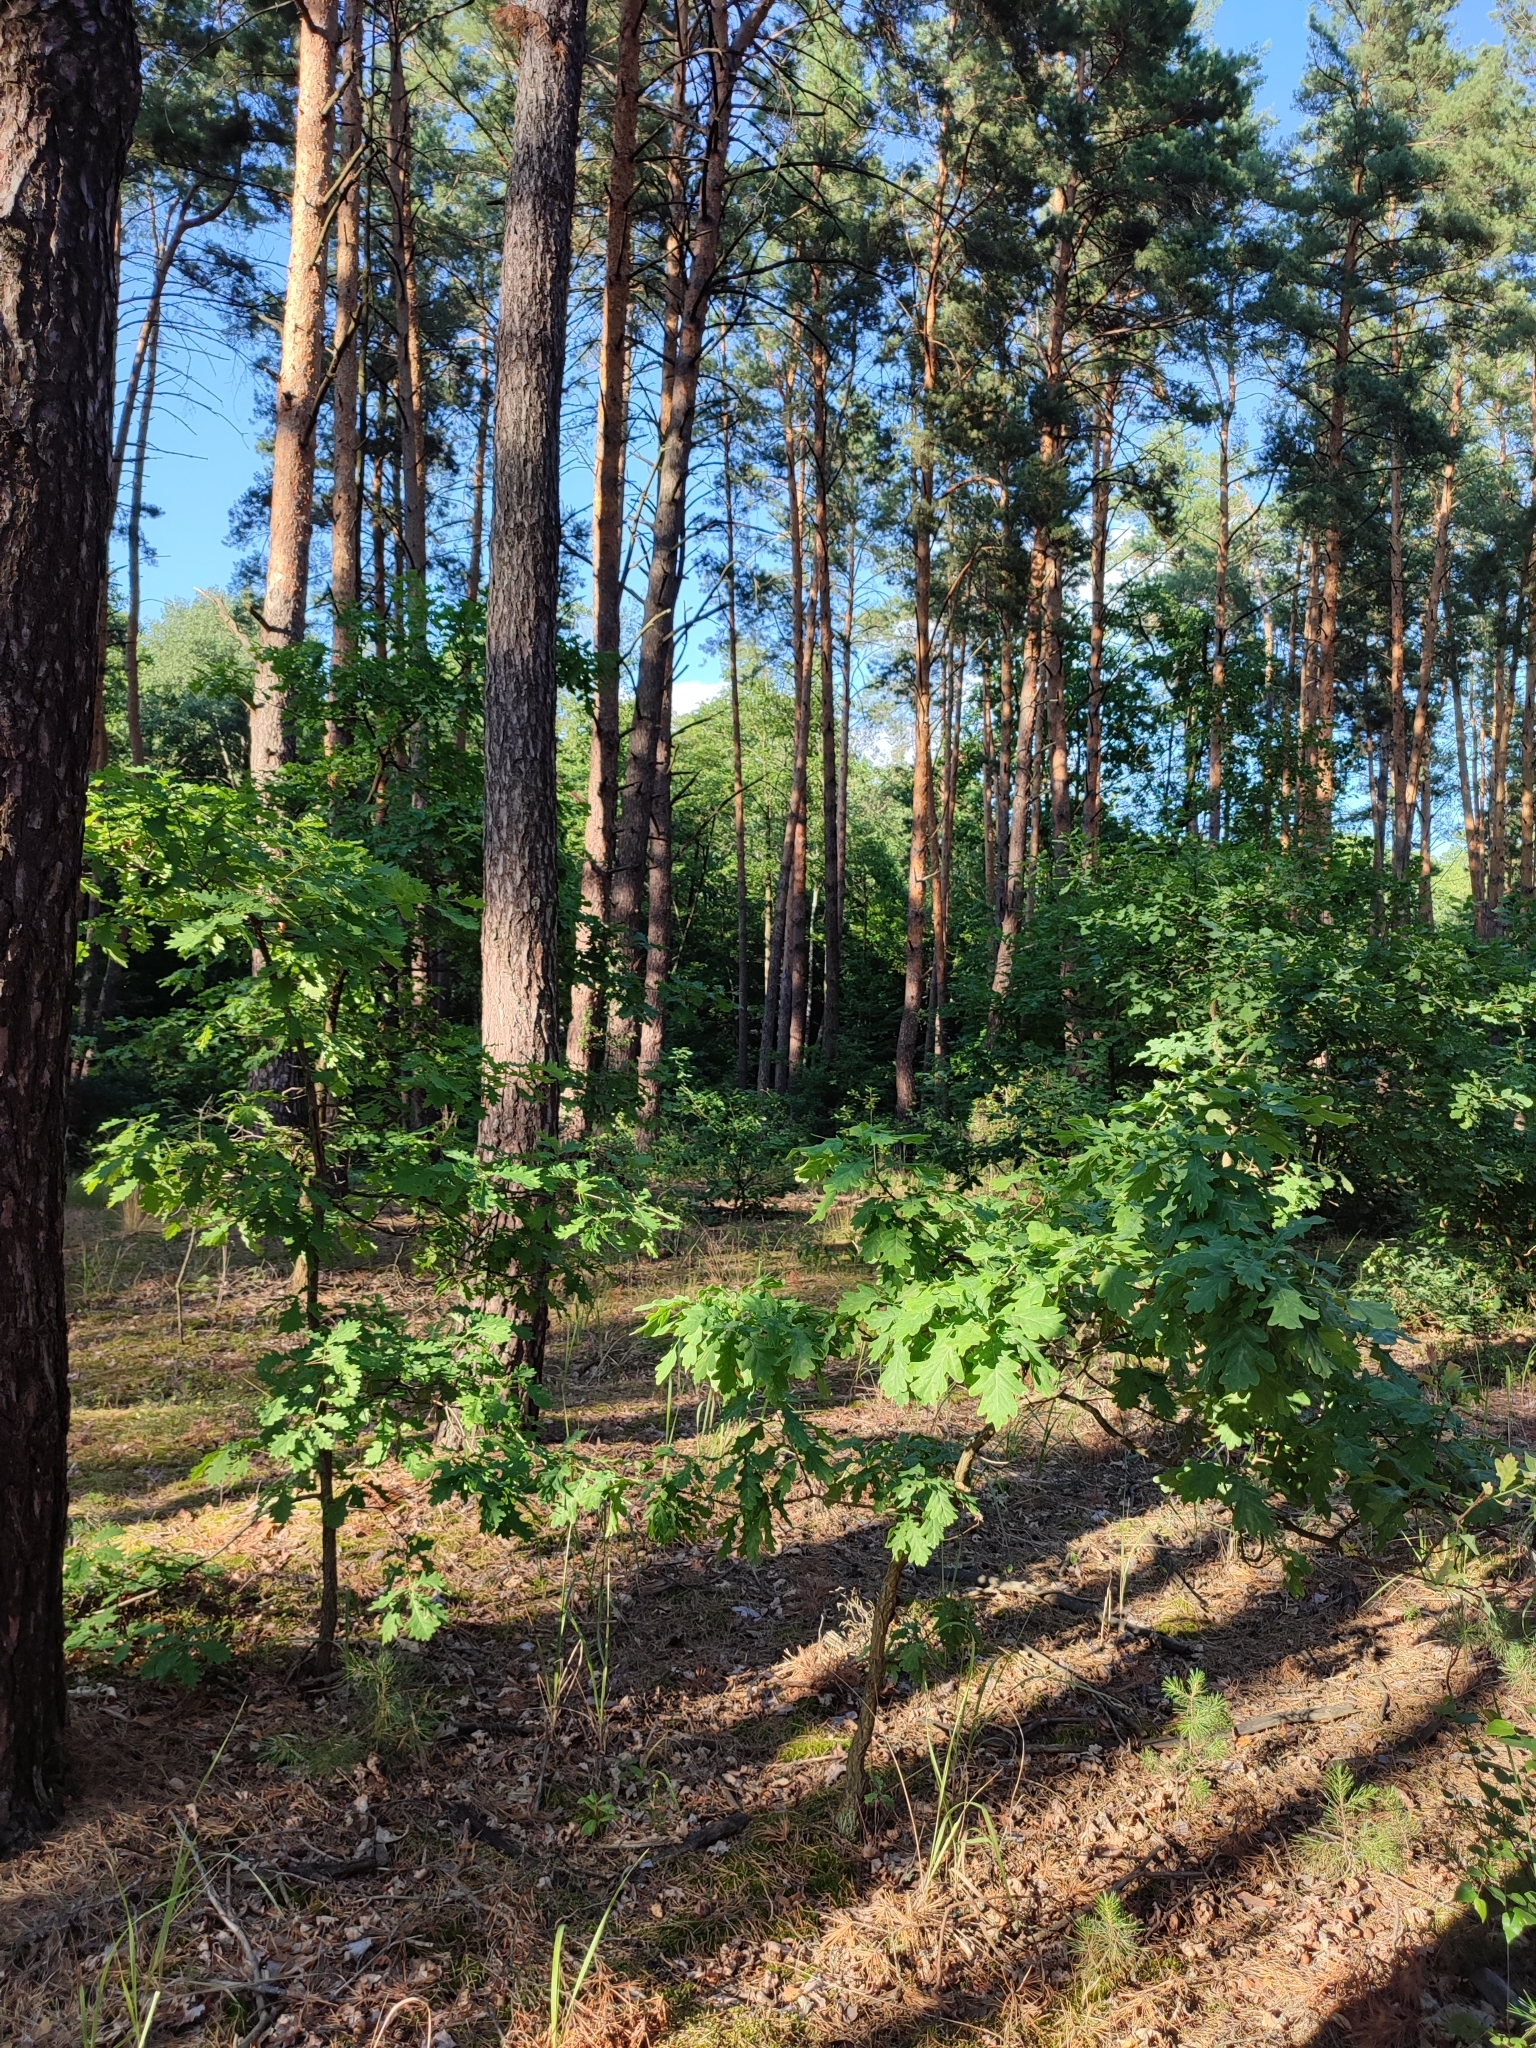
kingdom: Plantae
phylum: Tracheophyta
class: Magnoliopsida
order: Fagales
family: Fagaceae
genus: Quercus
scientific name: Quercus robur
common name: Pedunculate oak
